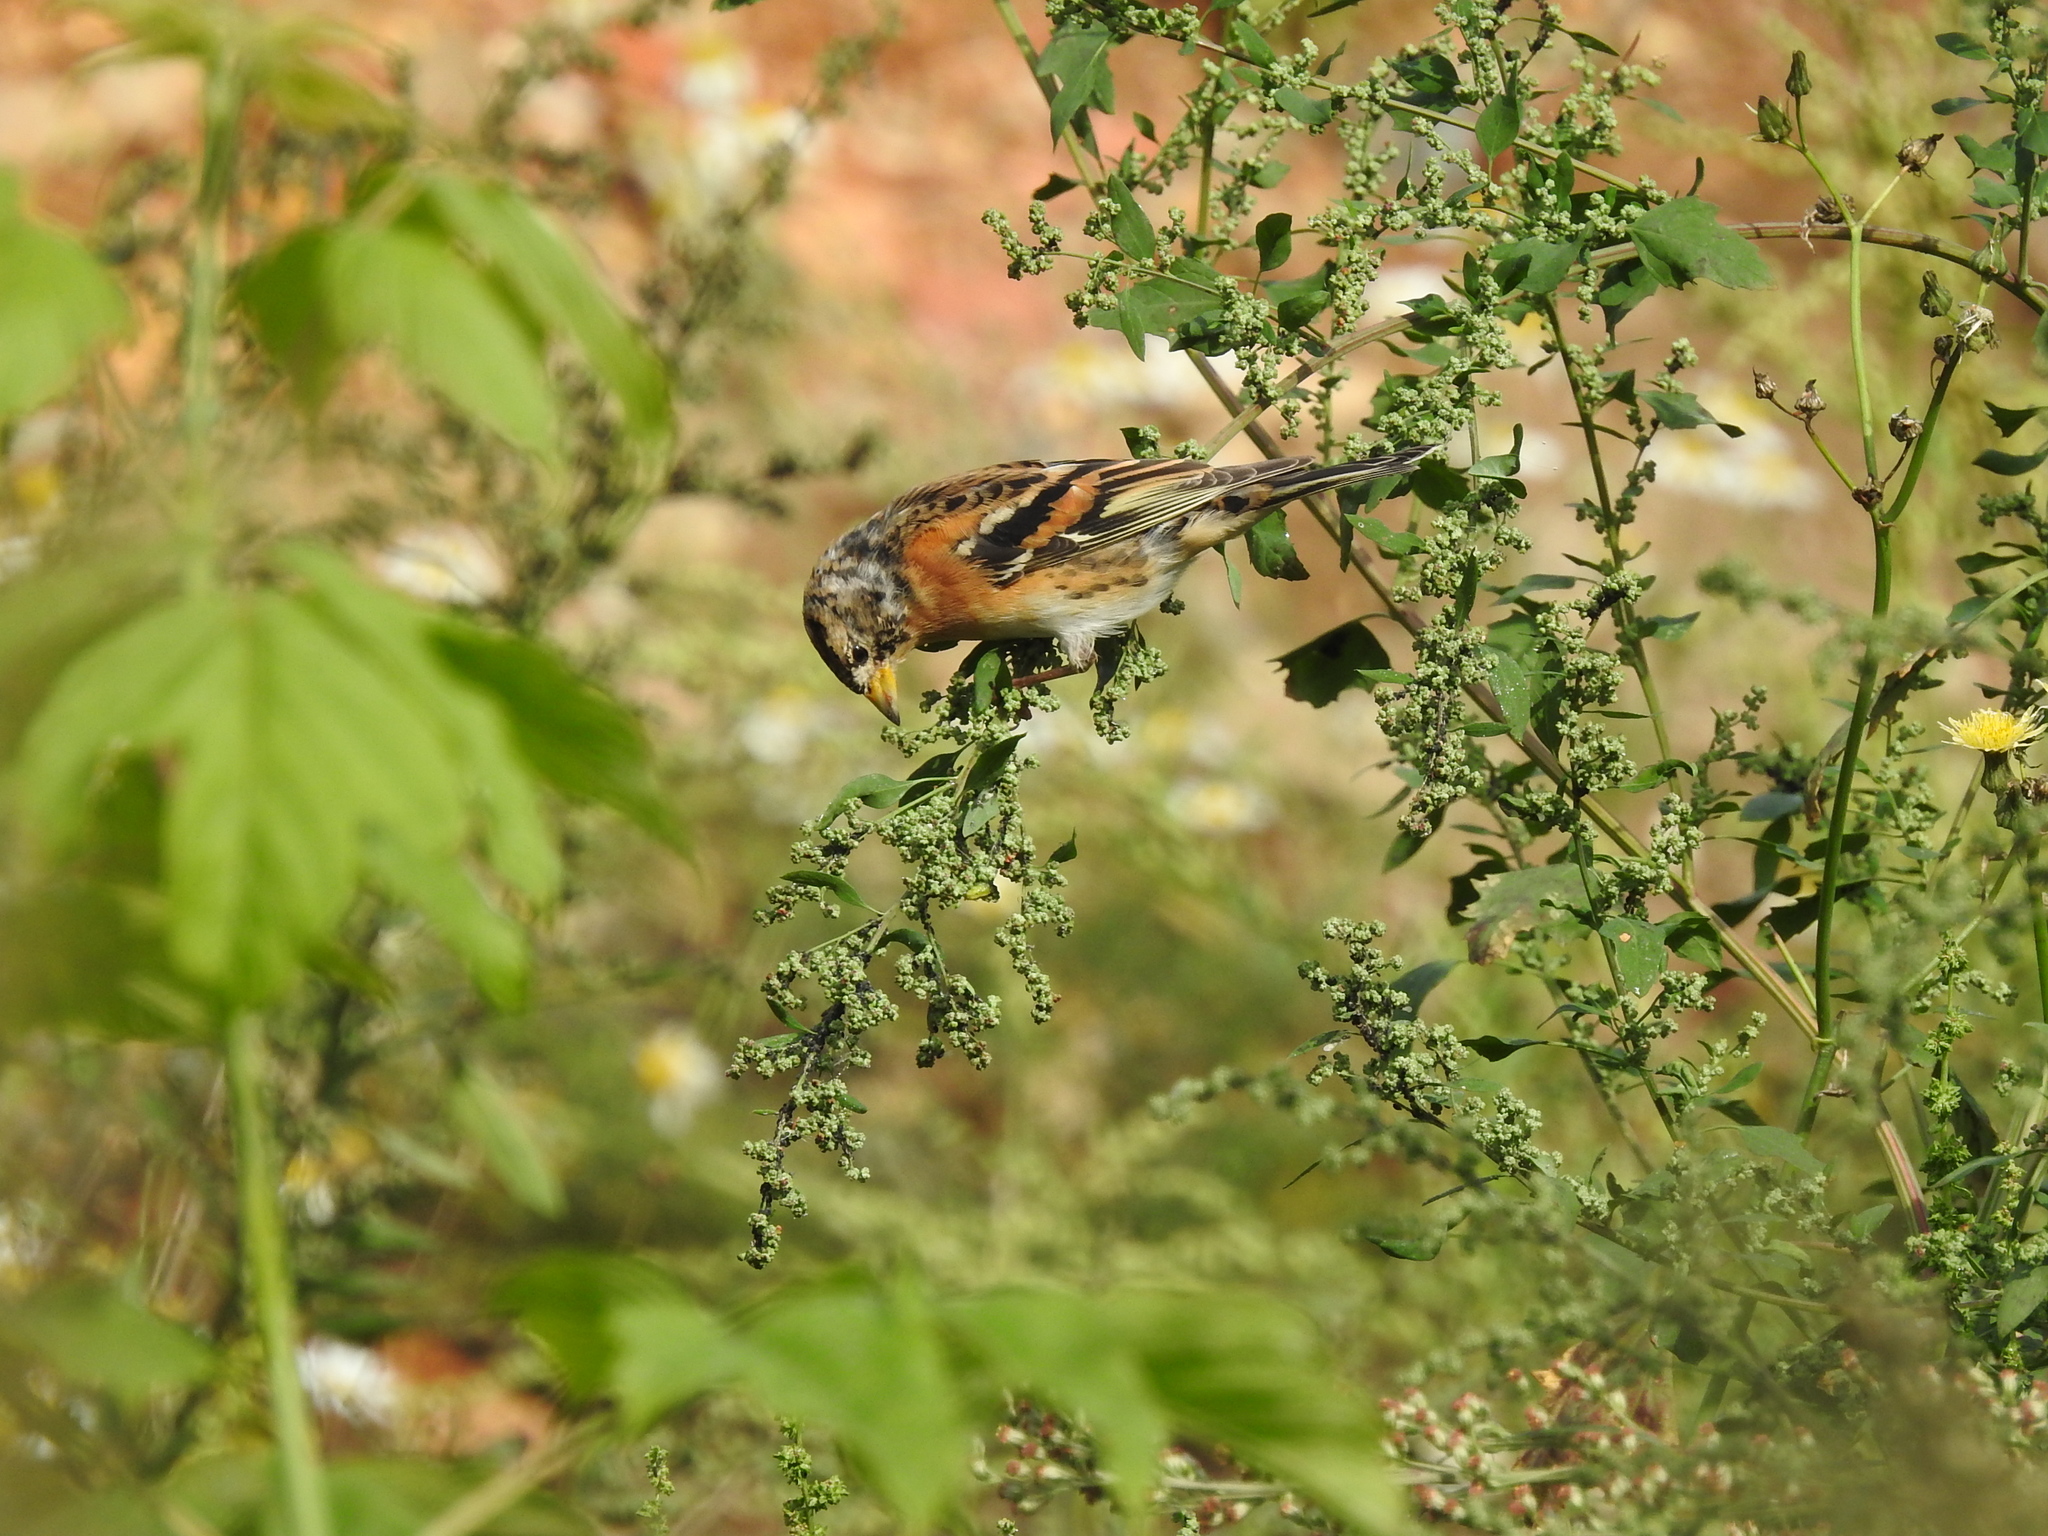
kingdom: Animalia
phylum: Chordata
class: Aves
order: Passeriformes
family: Fringillidae
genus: Fringilla
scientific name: Fringilla montifringilla
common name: Brambling
